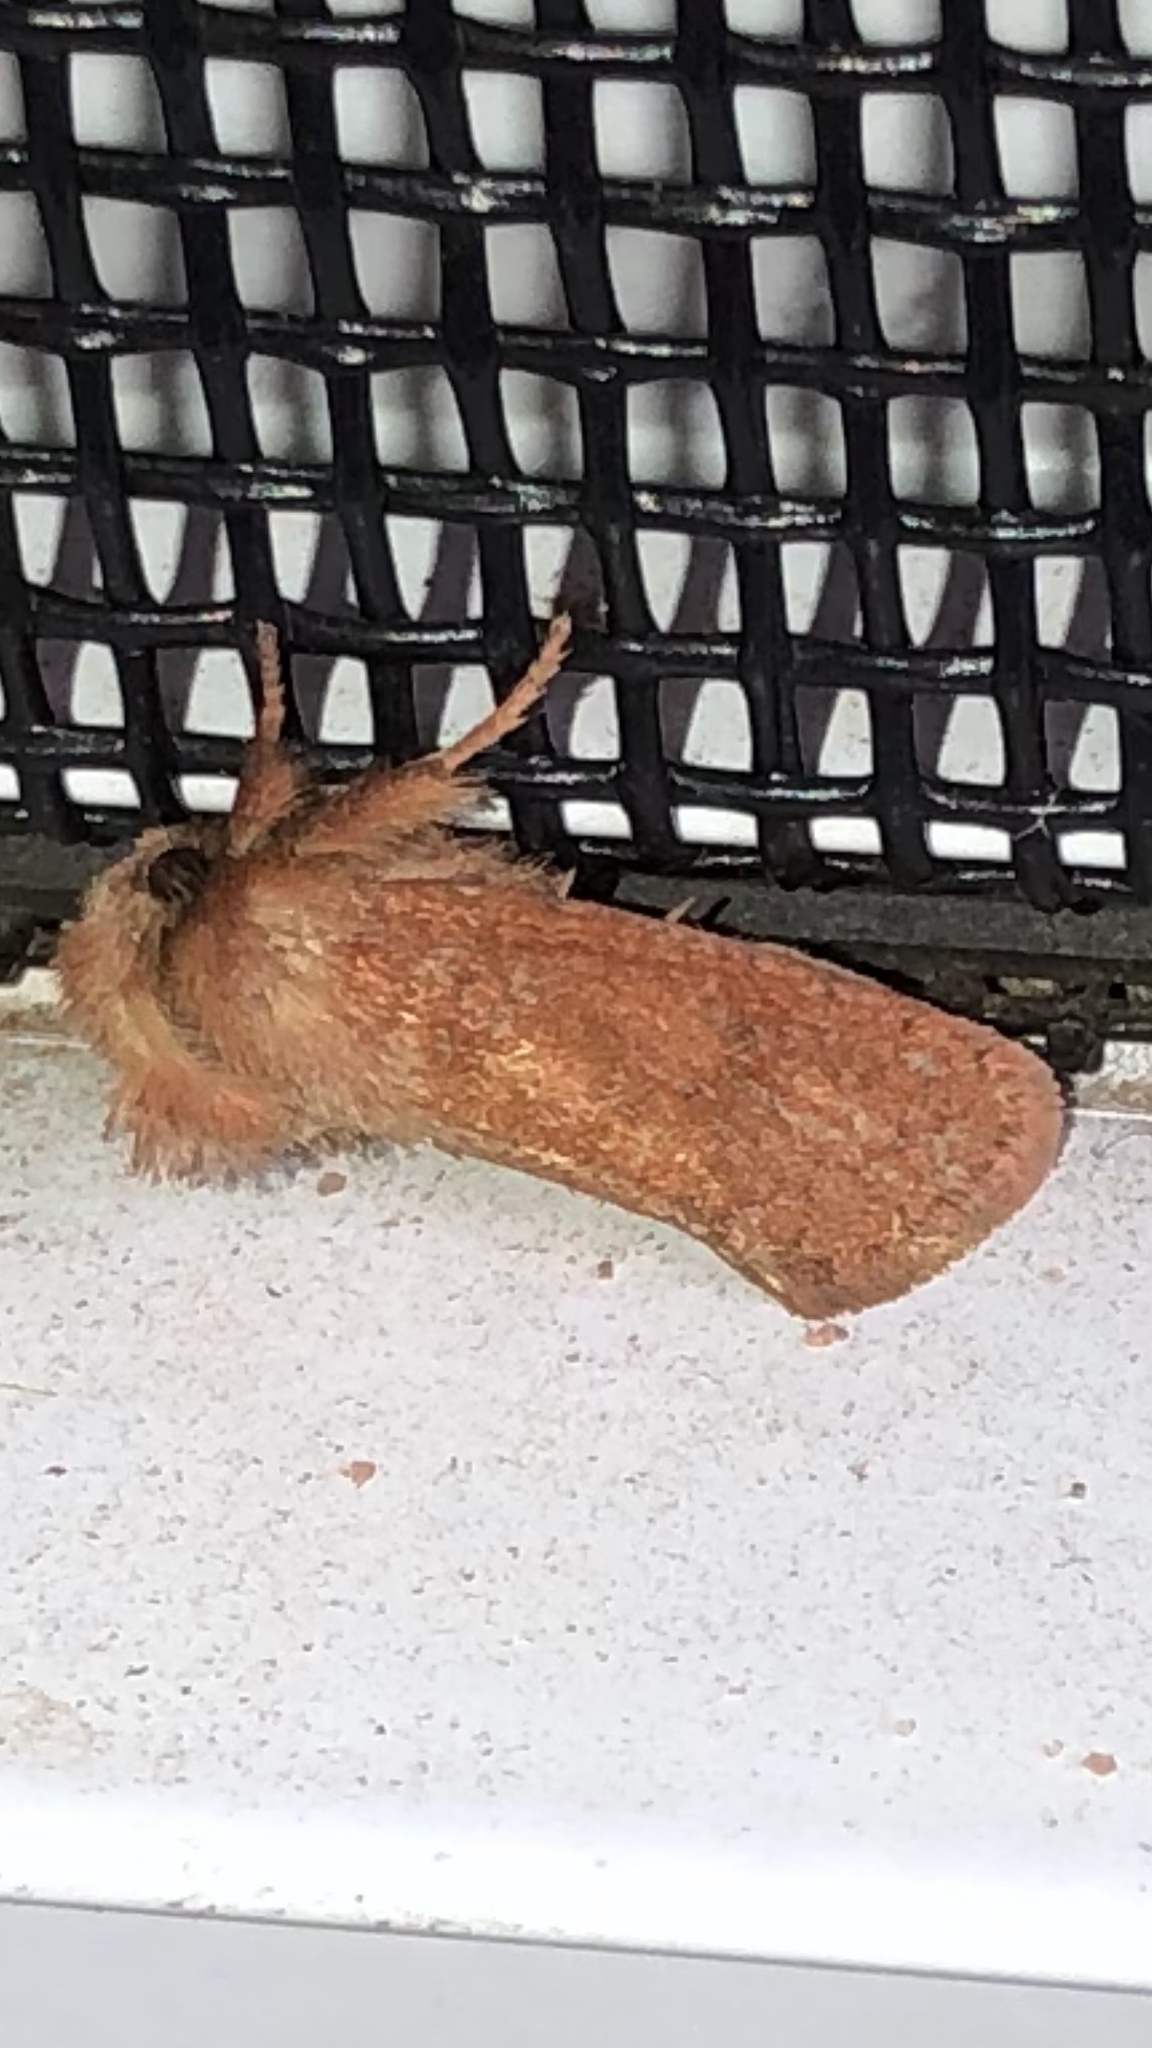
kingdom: Animalia
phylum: Arthropoda
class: Insecta
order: Lepidoptera
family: Tineidae
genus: Acrolophus
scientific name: Acrolophus plumifrontella
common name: Eastern grass tubeworm moth
